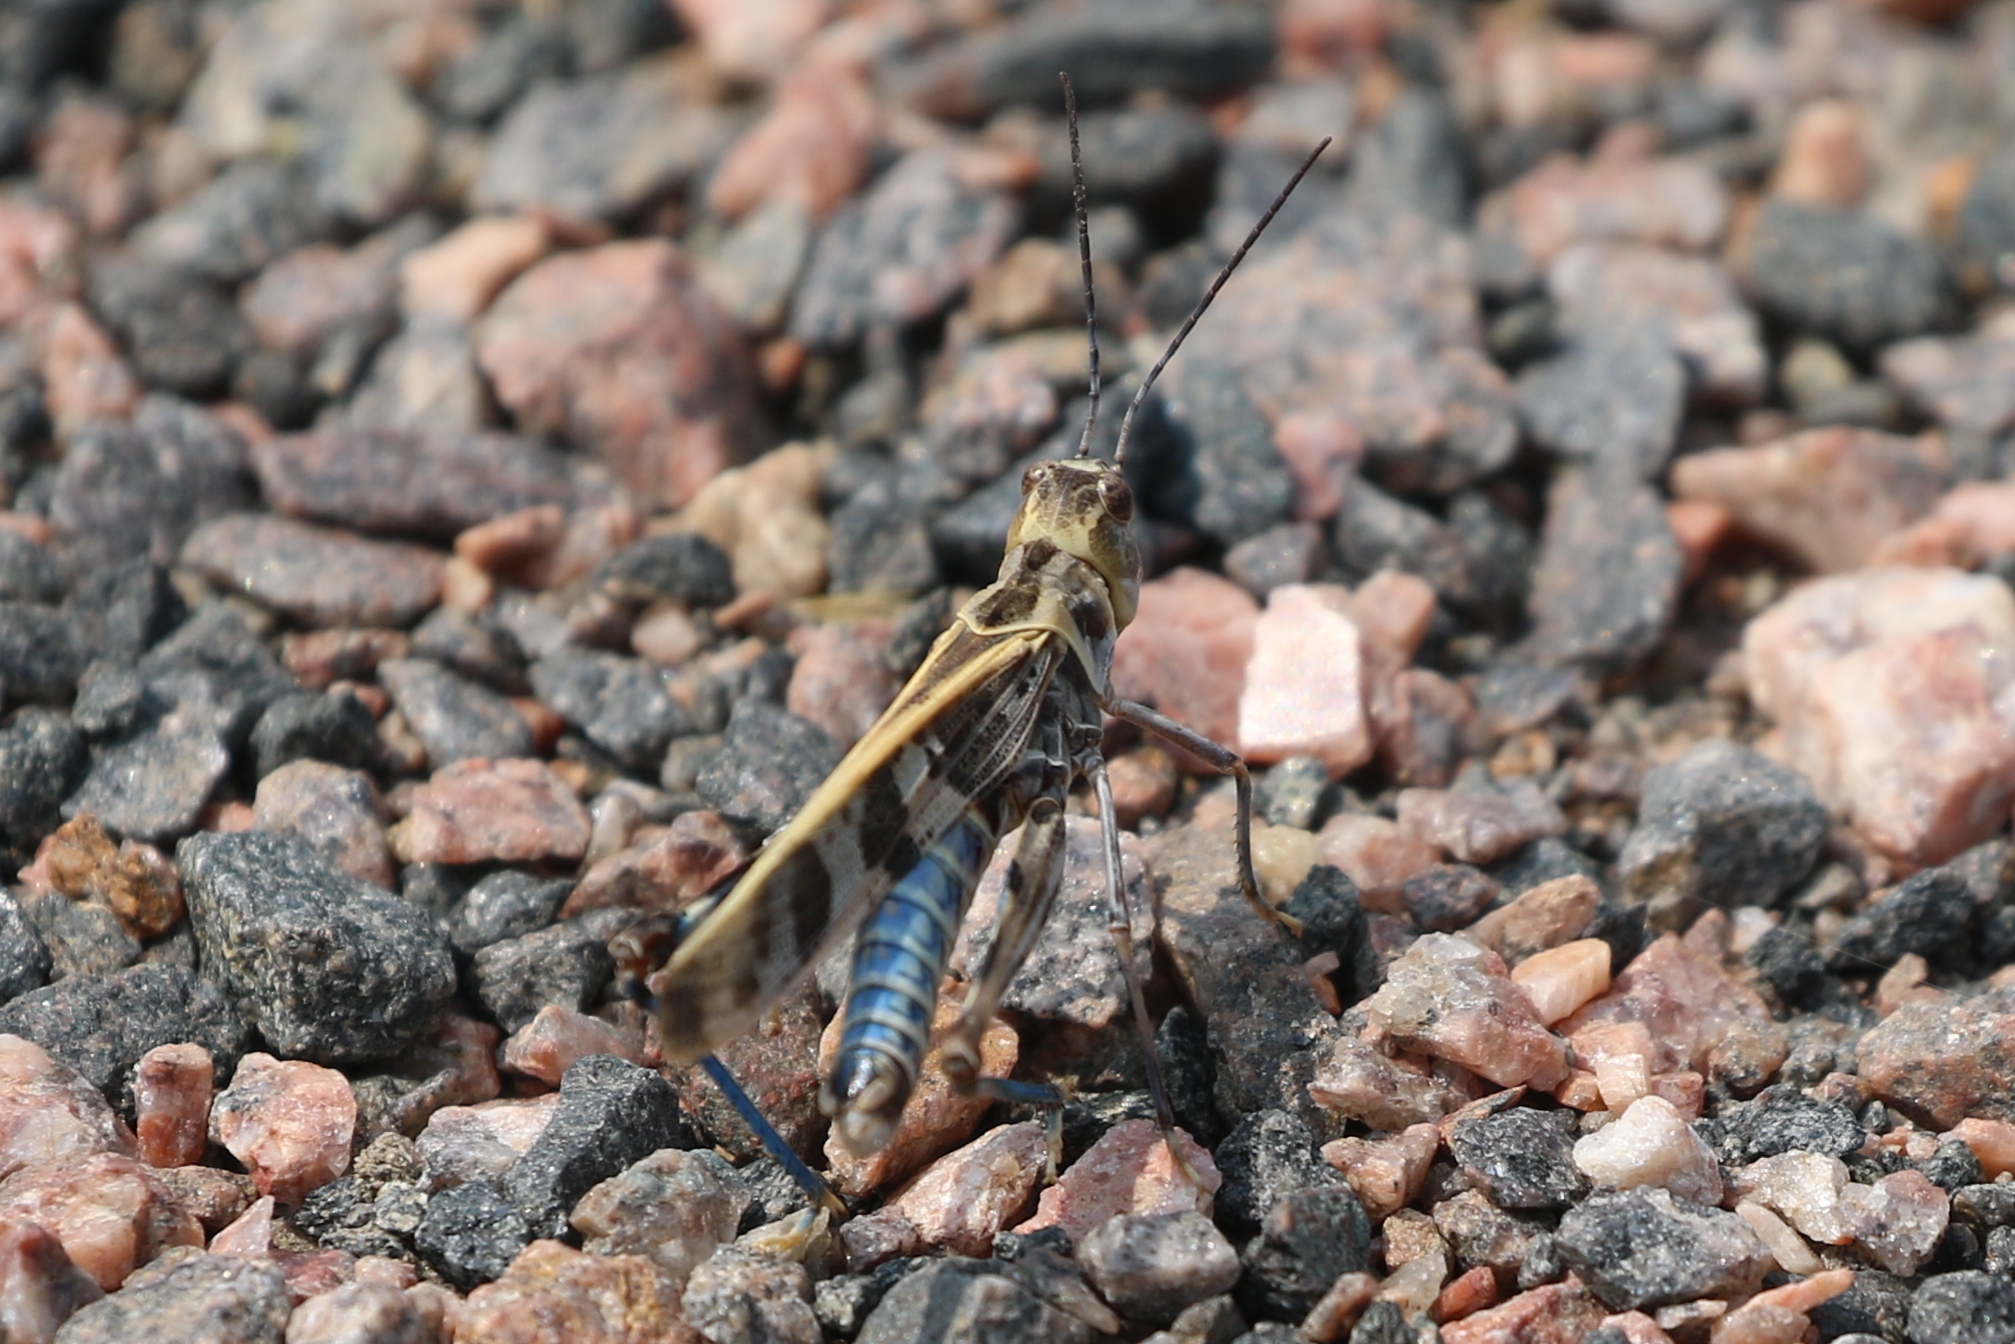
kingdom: Animalia
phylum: Arthropoda
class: Insecta
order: Orthoptera
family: Acrididae
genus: Metator
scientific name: Metator pardalinus
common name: Blue-legged grasshopper
